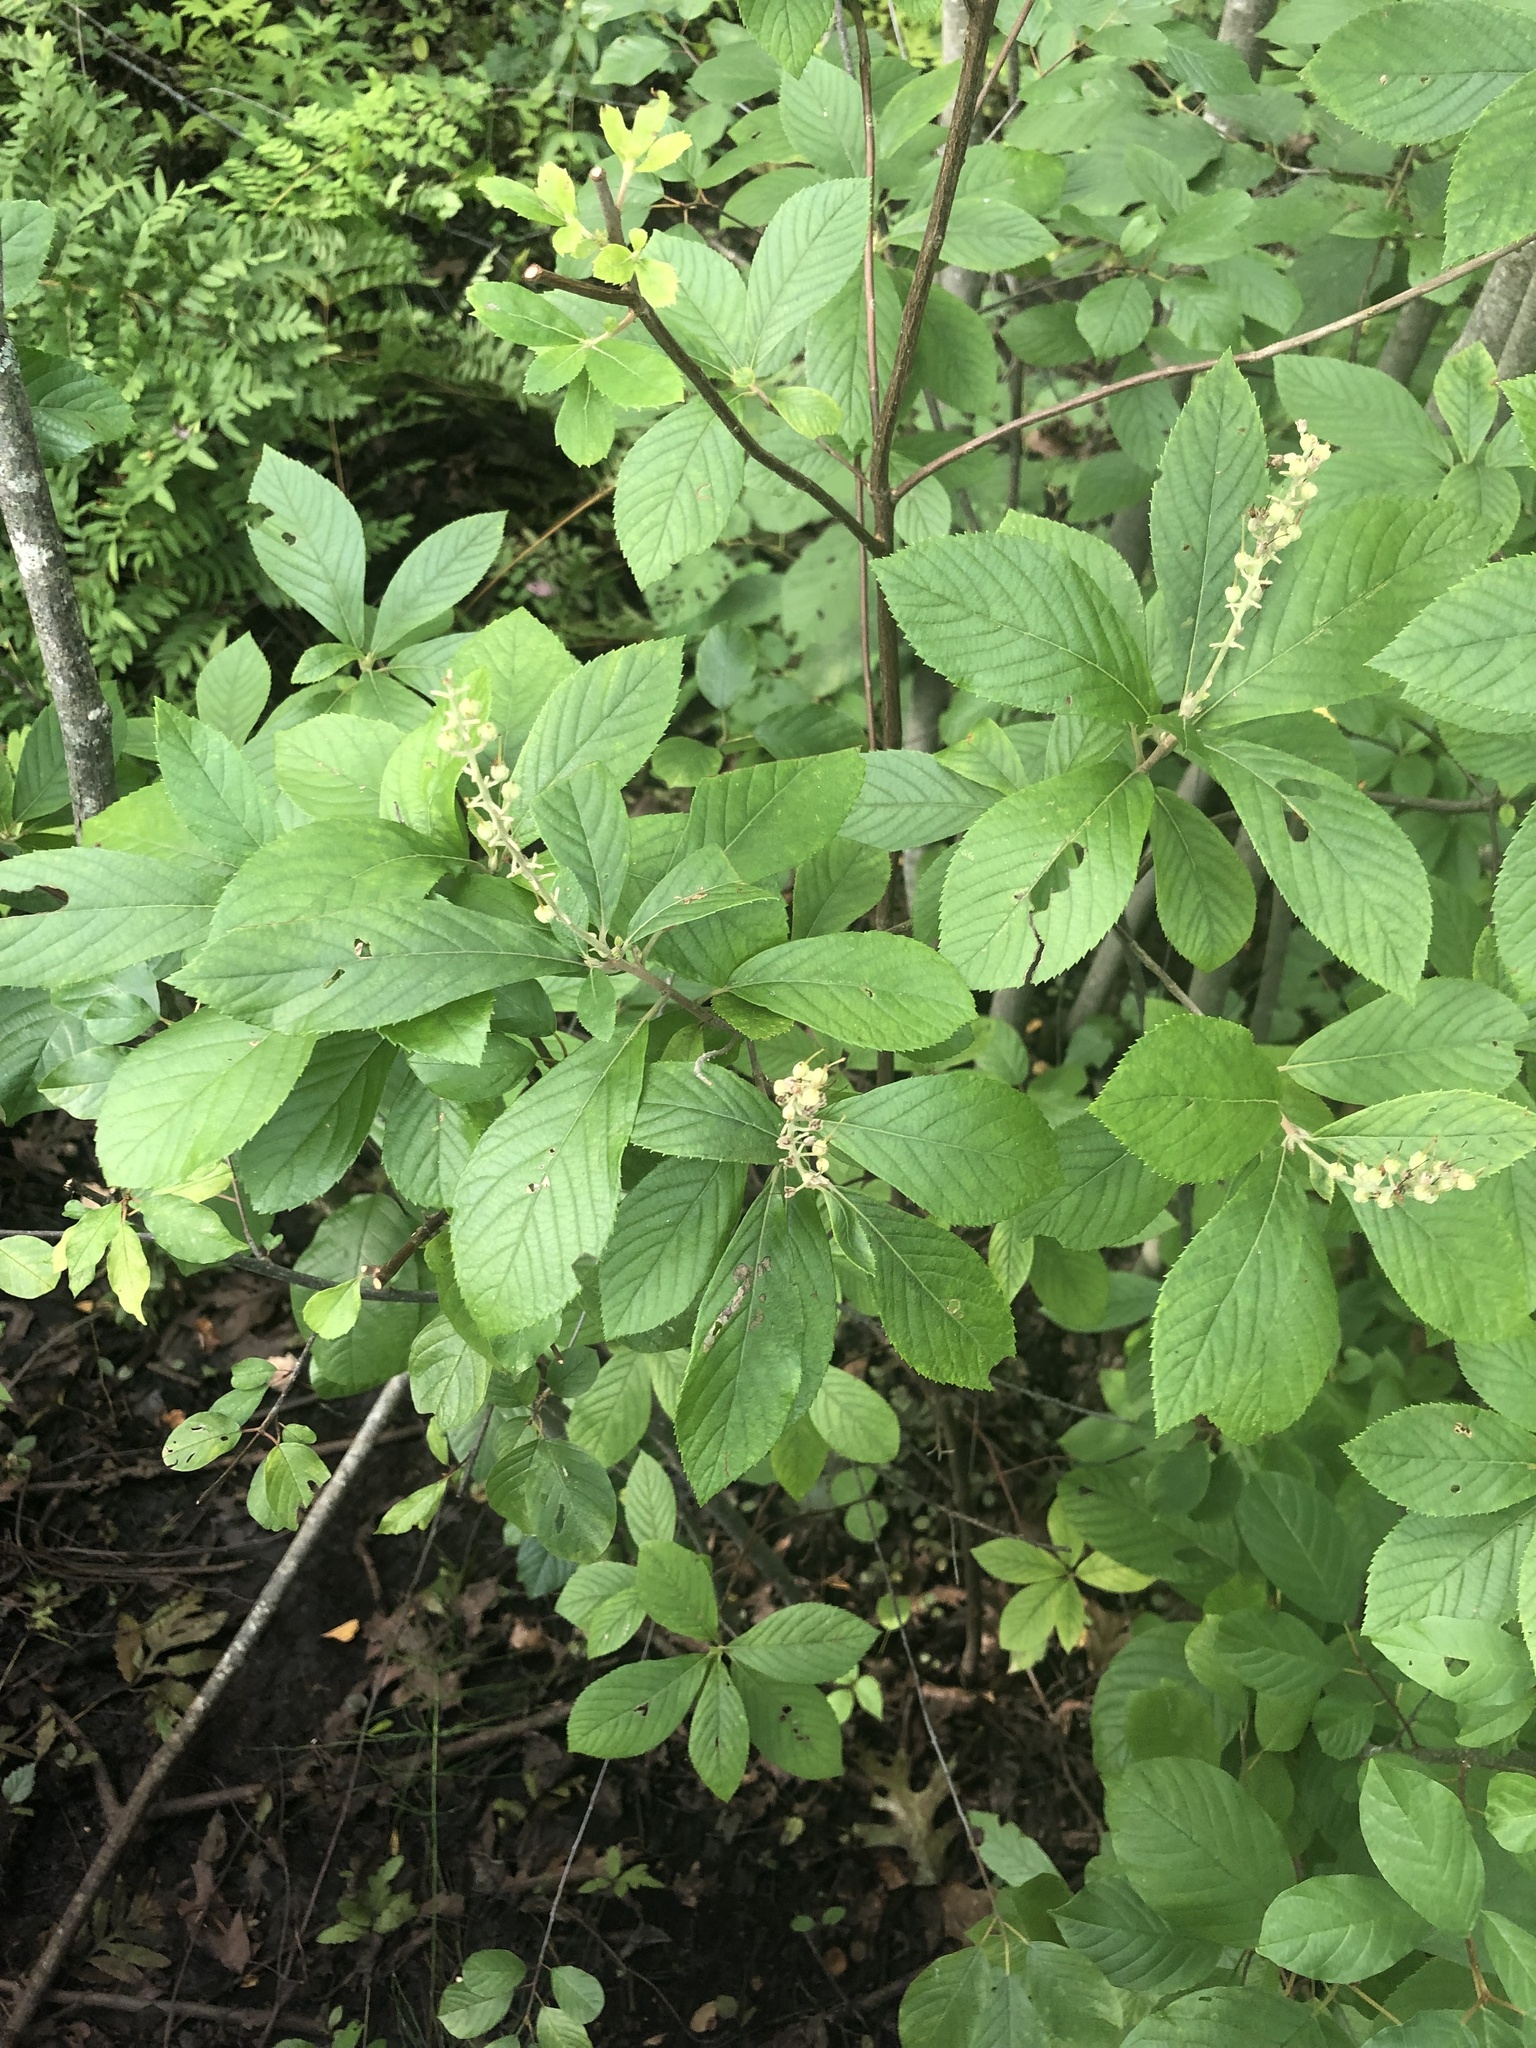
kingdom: Plantae
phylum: Tracheophyta
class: Magnoliopsida
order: Ericales
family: Clethraceae
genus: Clethra
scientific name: Clethra alnifolia
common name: Sweet pepperbush
